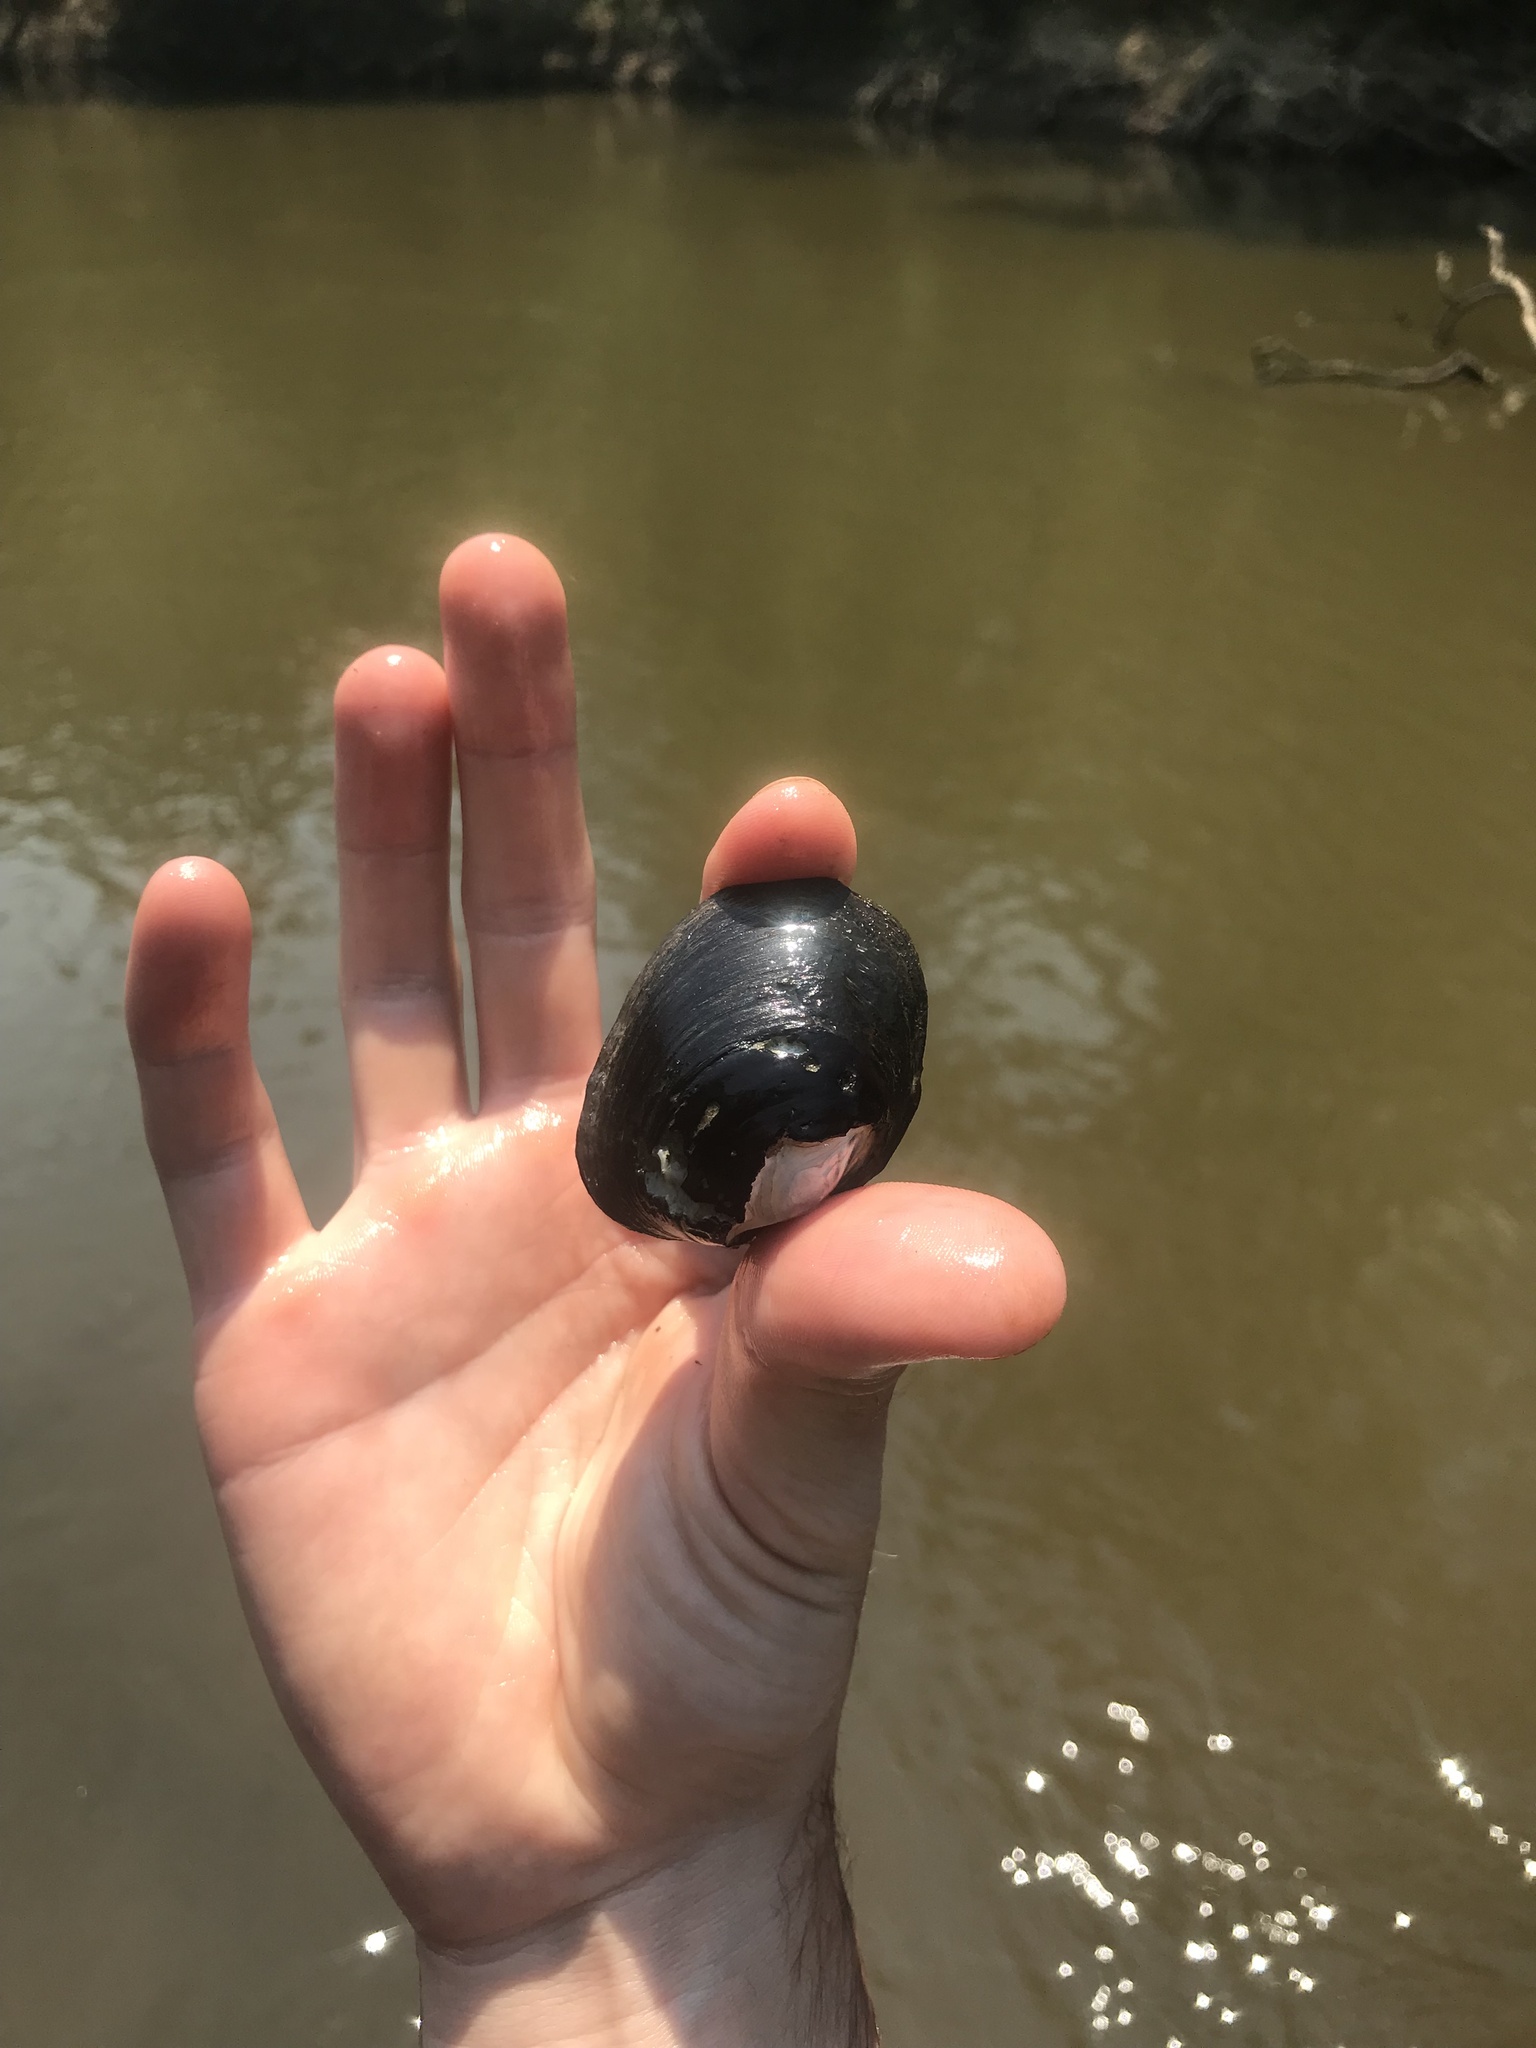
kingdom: Animalia
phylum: Mollusca
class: Bivalvia
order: Unionida
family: Unionidae
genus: Obovaria
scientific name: Obovaria arkansasensis
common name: Southern hickorynut
